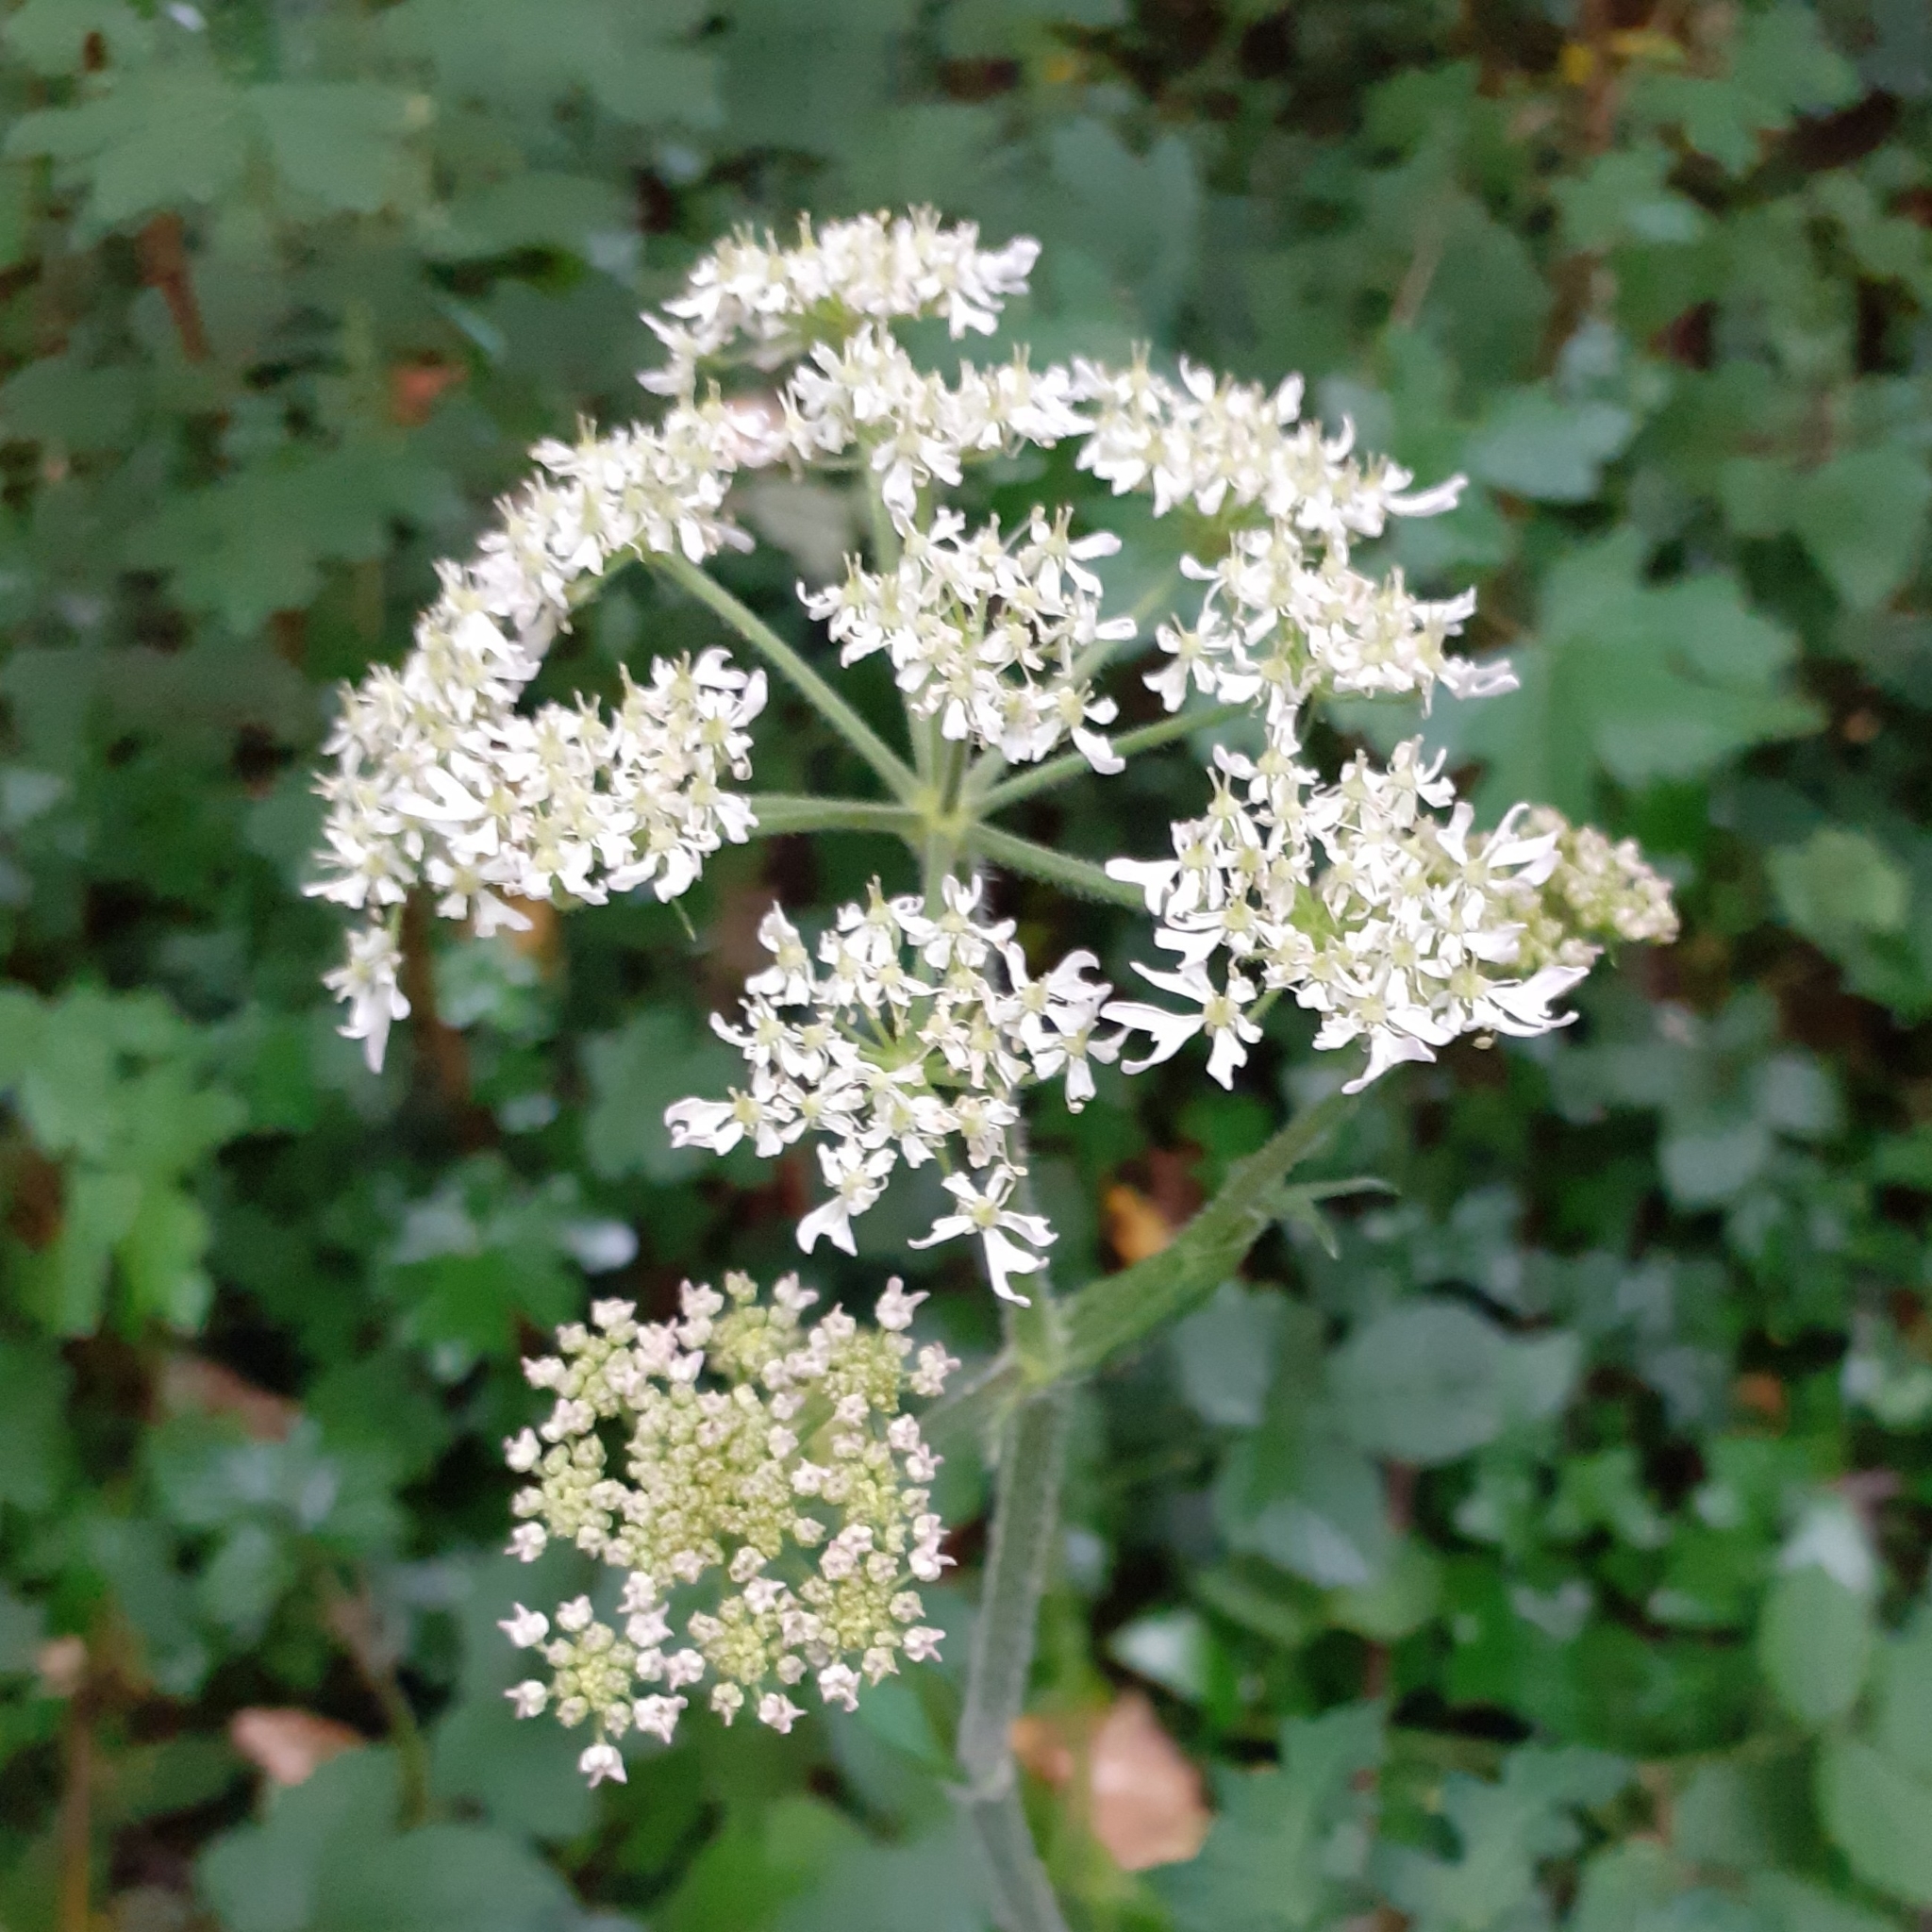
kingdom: Plantae
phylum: Tracheophyta
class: Magnoliopsida
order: Apiales
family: Apiaceae
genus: Heracleum
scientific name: Heracleum sphondylium
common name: Hogweed
